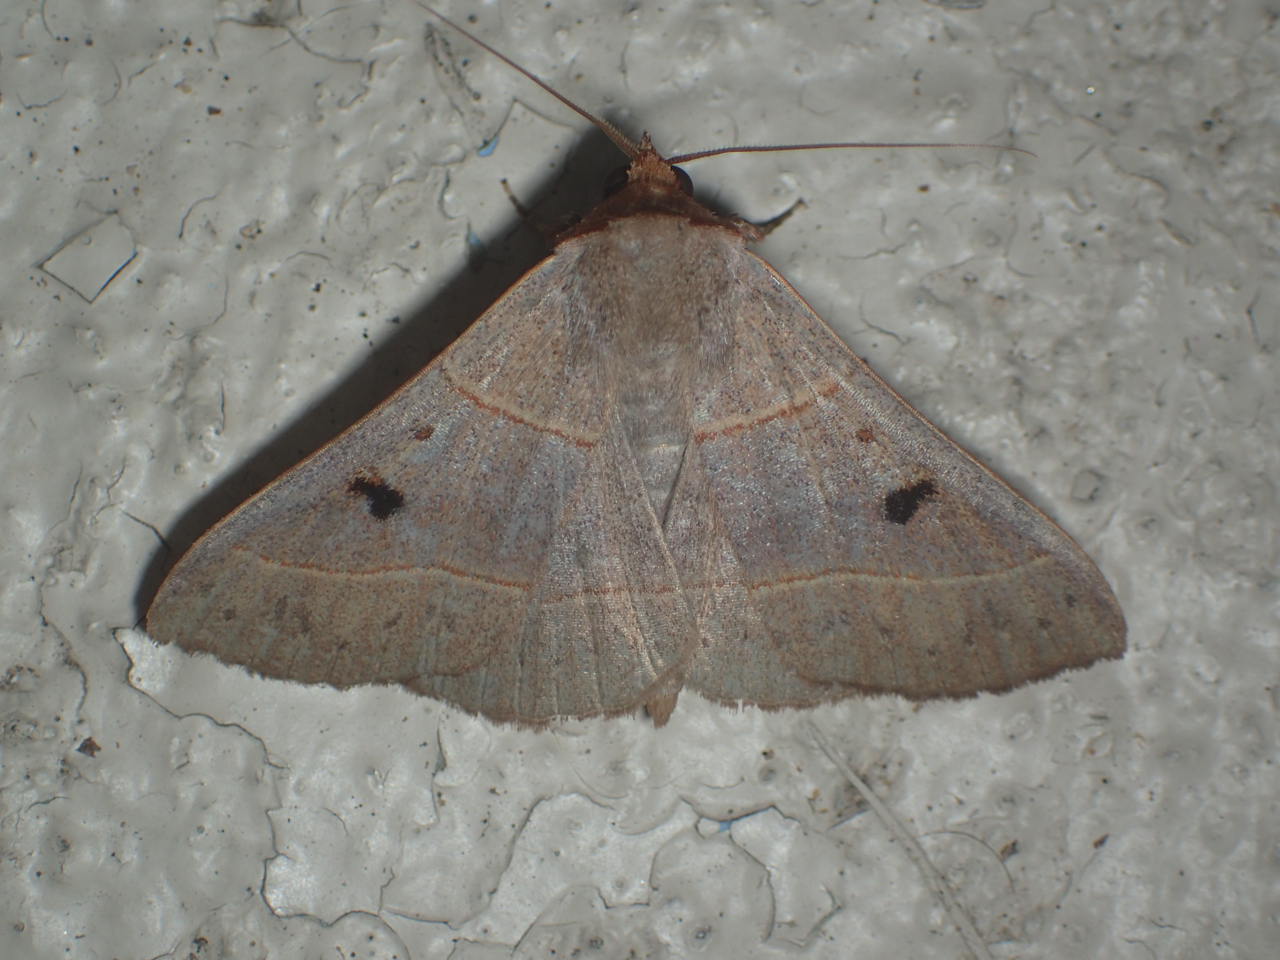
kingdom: Animalia
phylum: Arthropoda
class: Insecta
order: Lepidoptera
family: Erebidae
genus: Panopoda
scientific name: Panopoda rufimargo
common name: Red-lined panopoda moth
